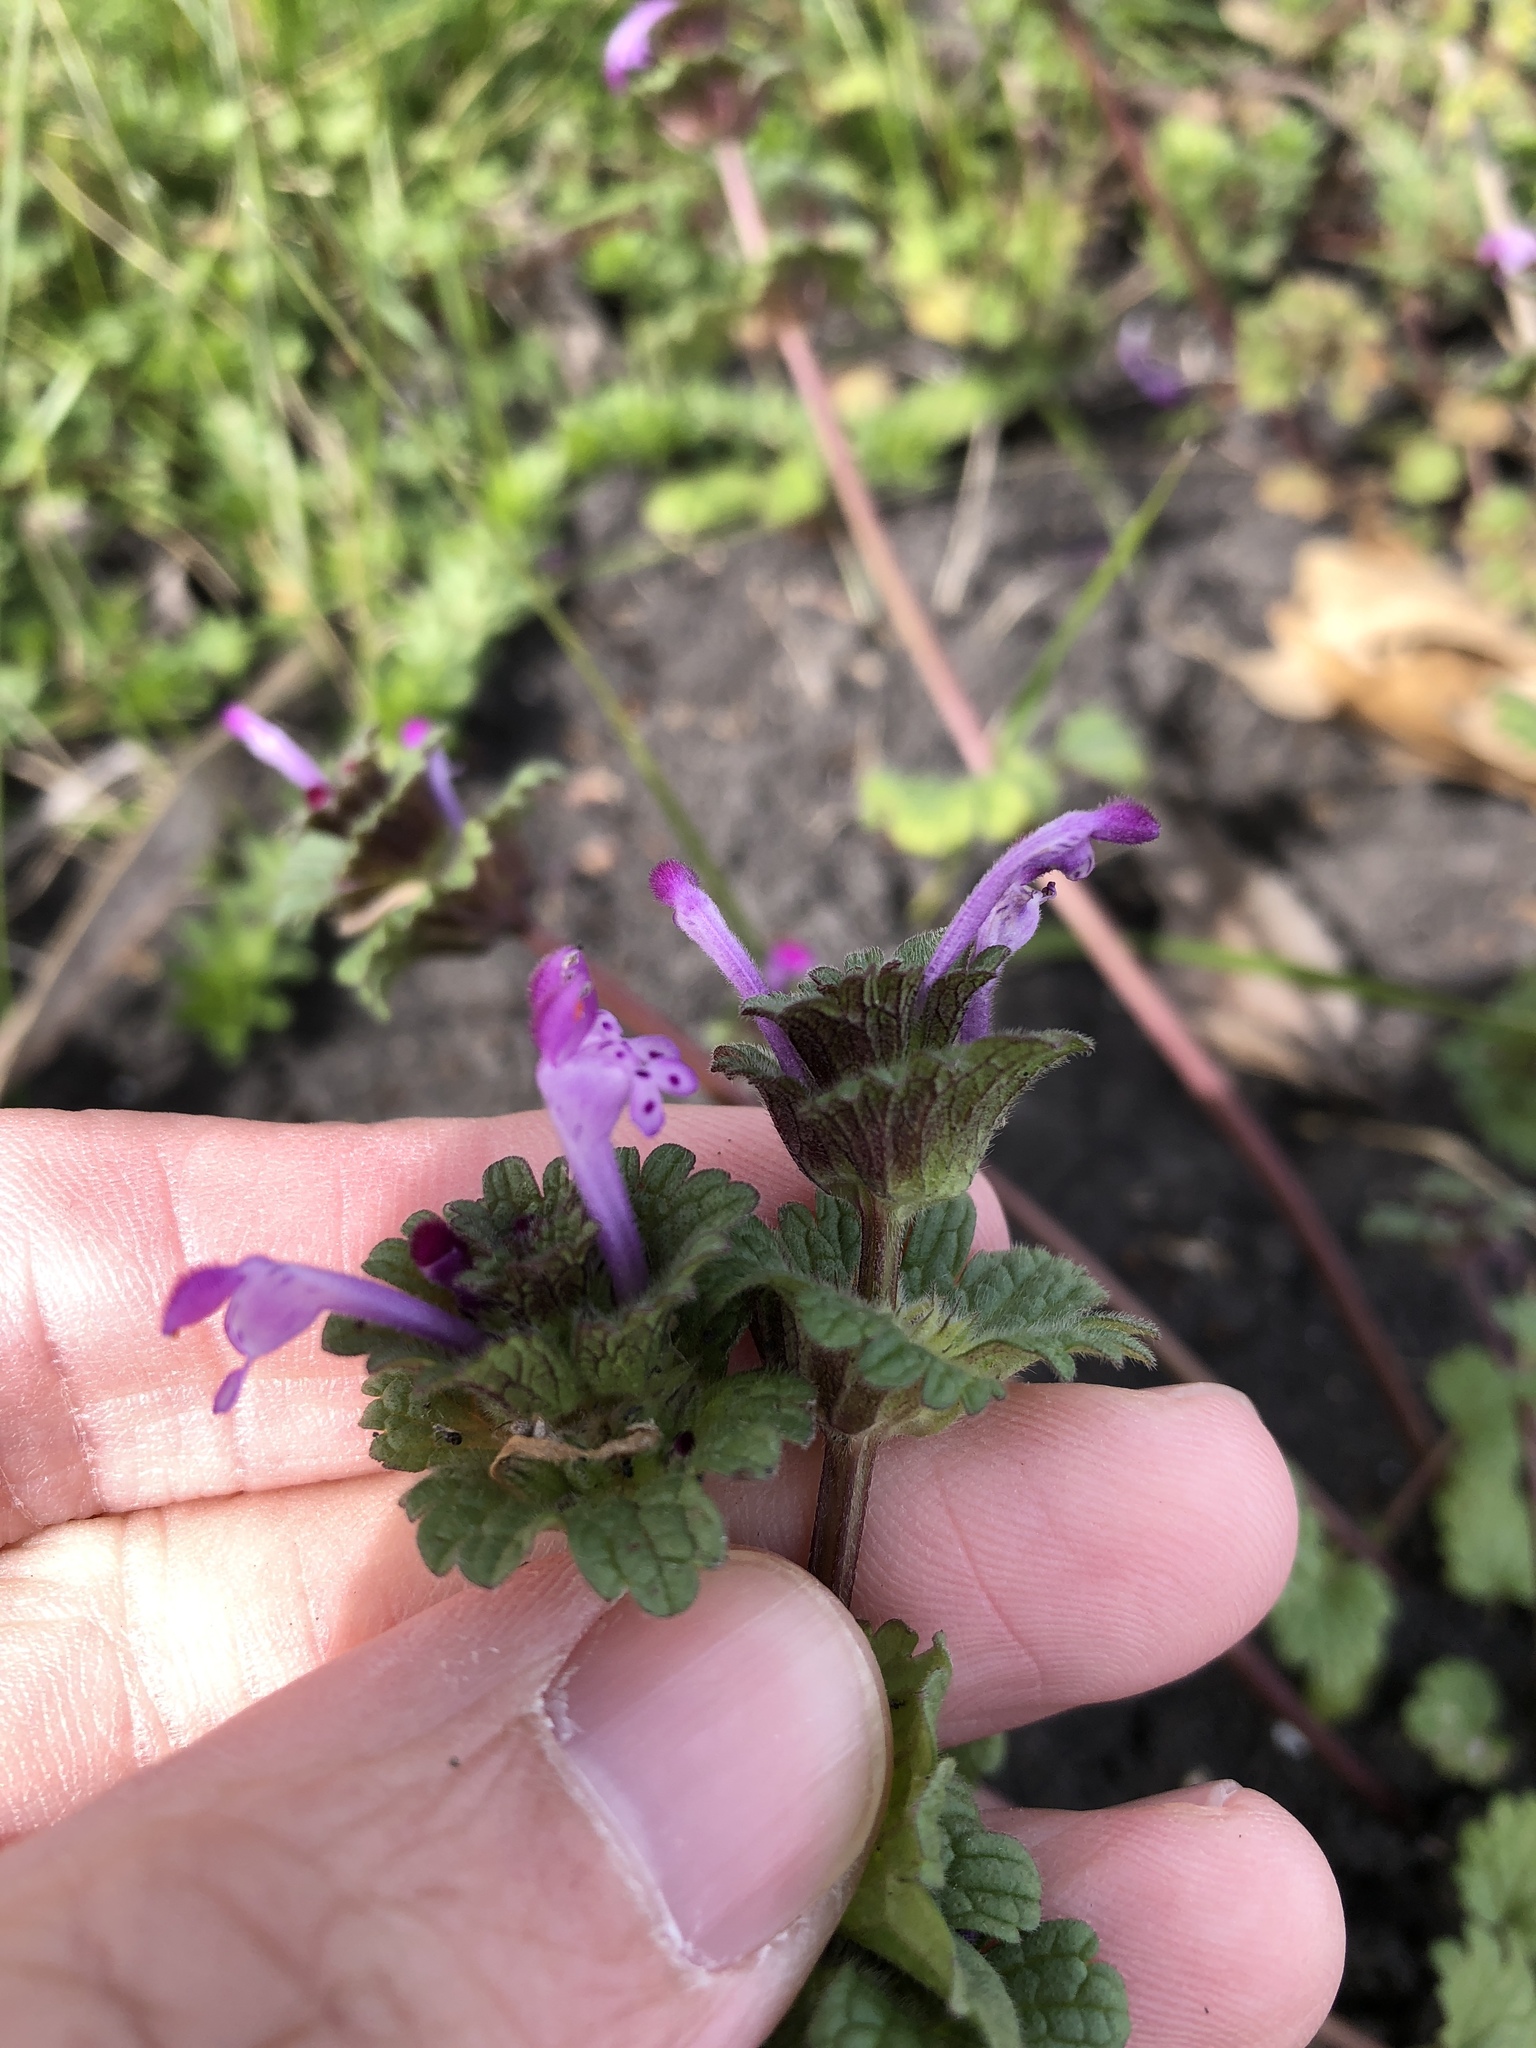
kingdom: Plantae
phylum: Tracheophyta
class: Magnoliopsida
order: Lamiales
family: Lamiaceae
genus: Lamium
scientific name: Lamium amplexicaule
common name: Henbit dead-nettle
